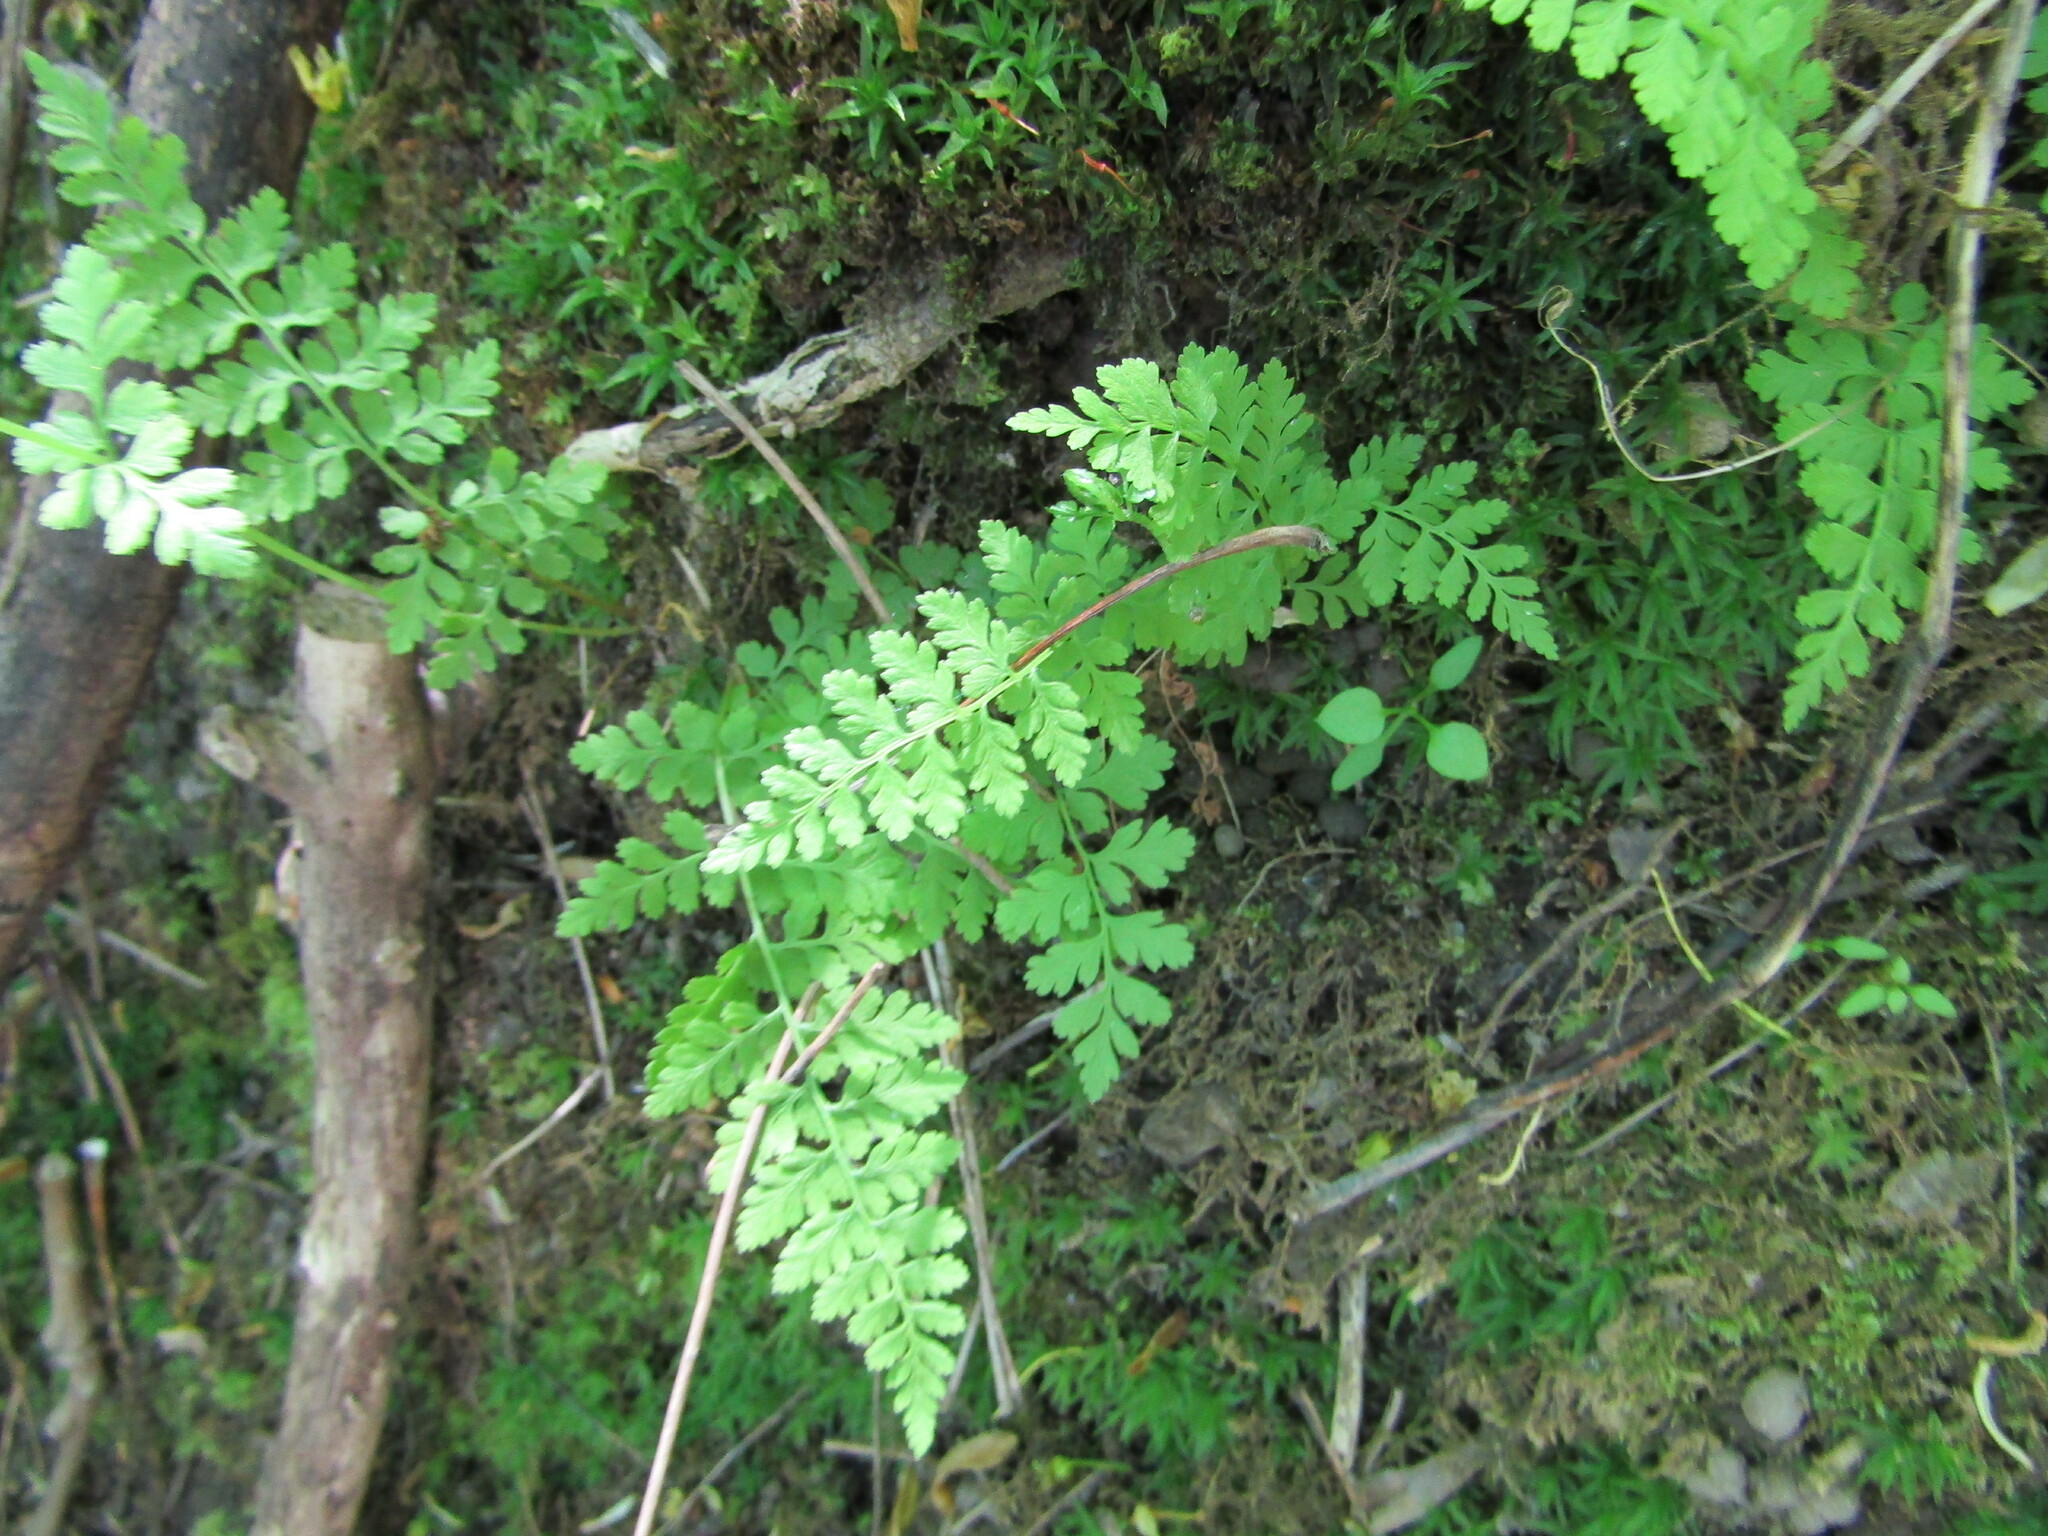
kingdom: Plantae
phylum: Tracheophyta
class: Polypodiopsida
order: Polypodiales
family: Cystopteridaceae
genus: Cystopteris
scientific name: Cystopteris fragilis
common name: Brittle bladder fern
